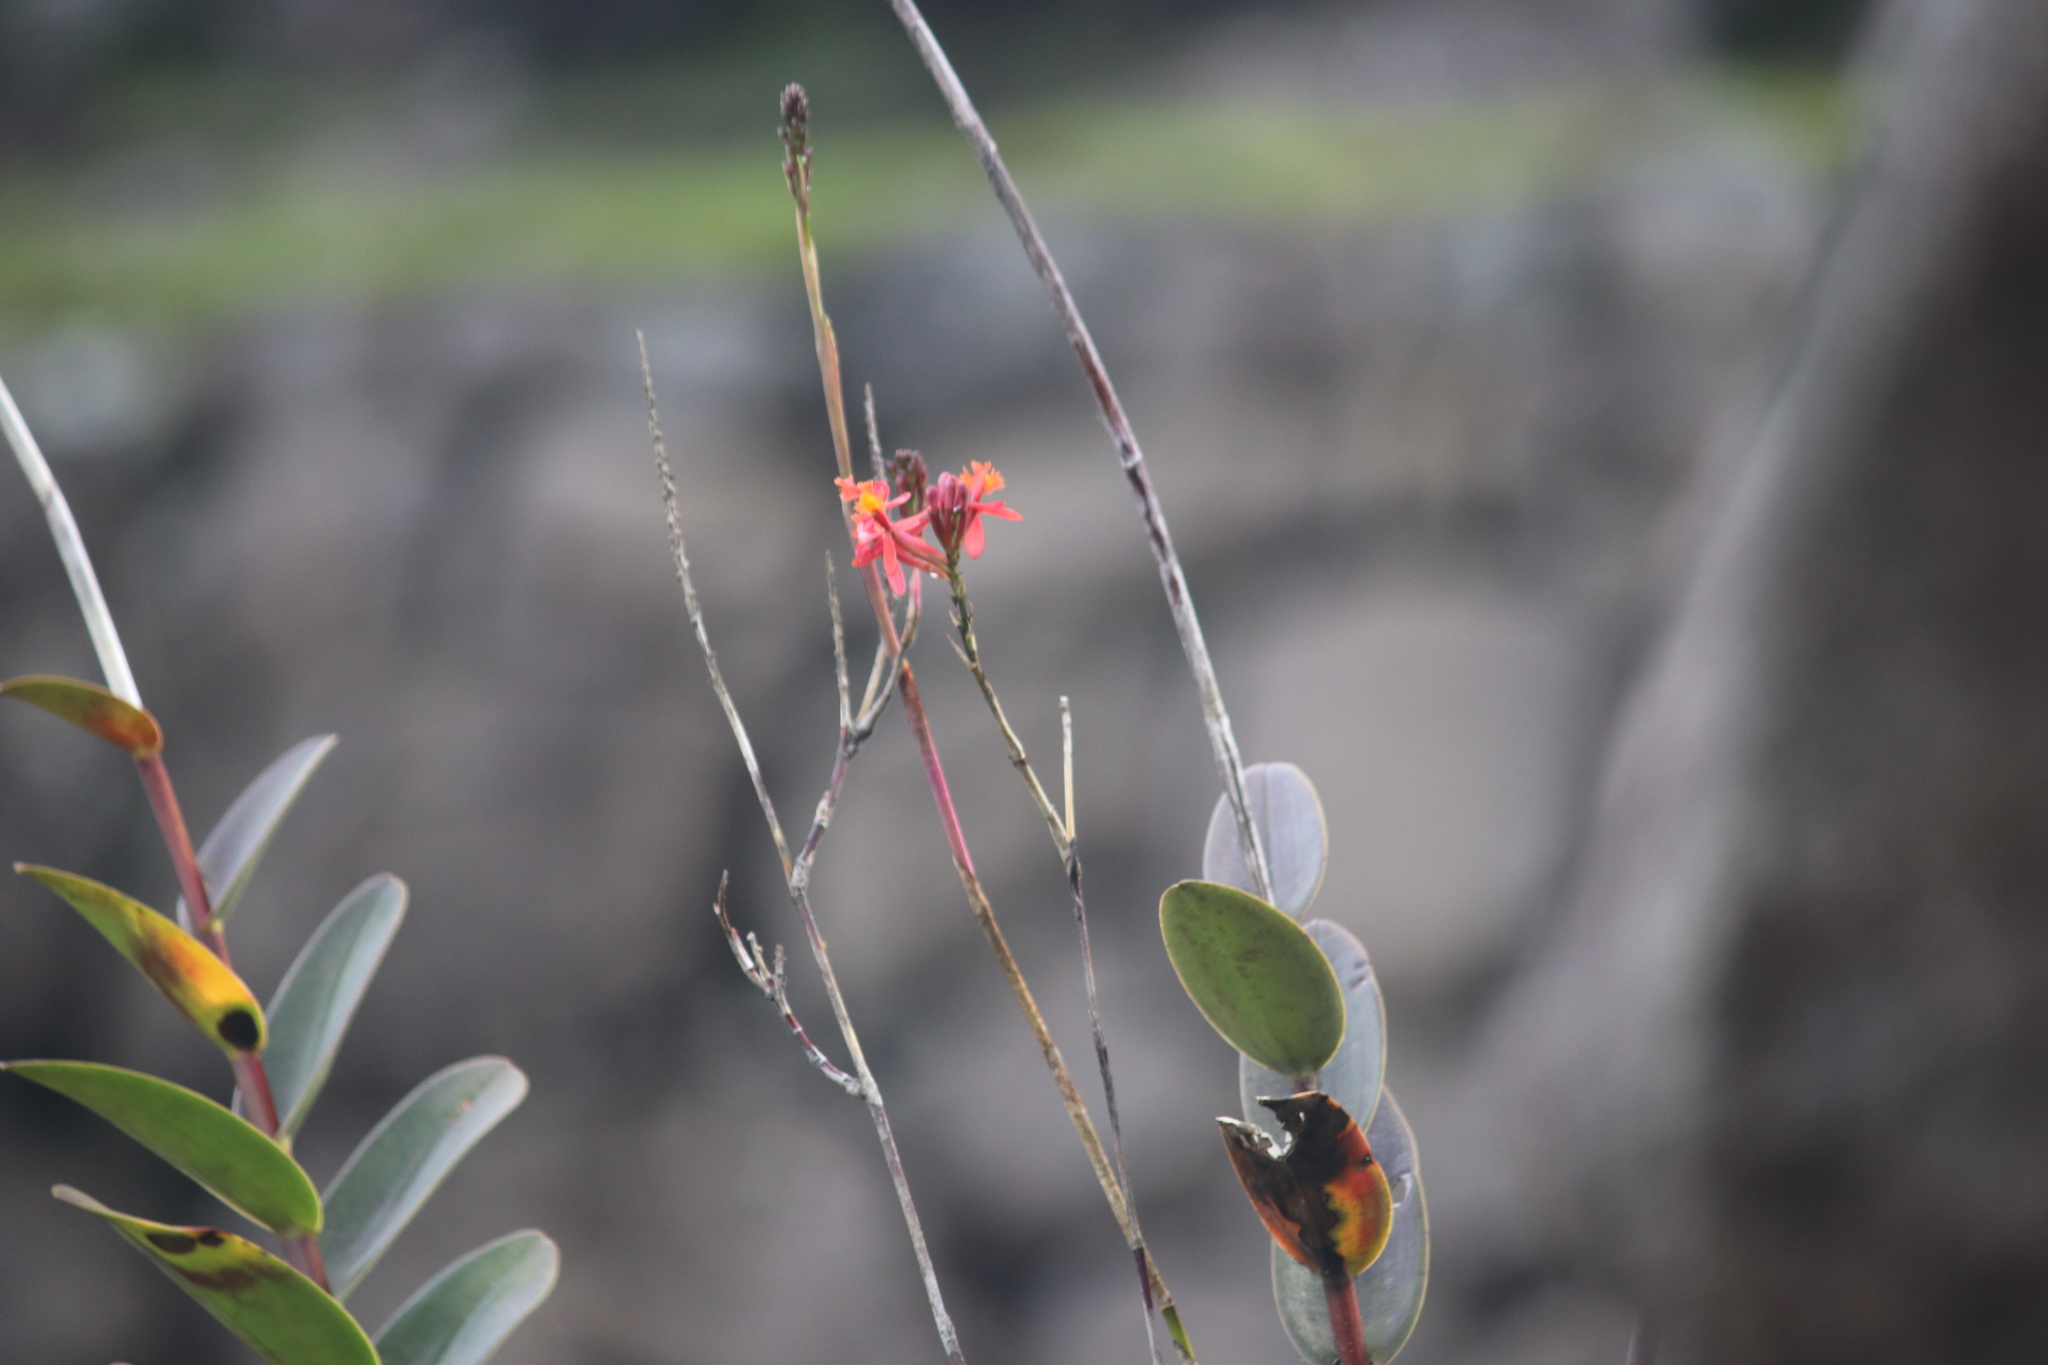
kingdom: Plantae
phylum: Tracheophyta
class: Liliopsida
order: Asparagales
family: Orchidaceae
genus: Epidendrum
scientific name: Epidendrum secundum
